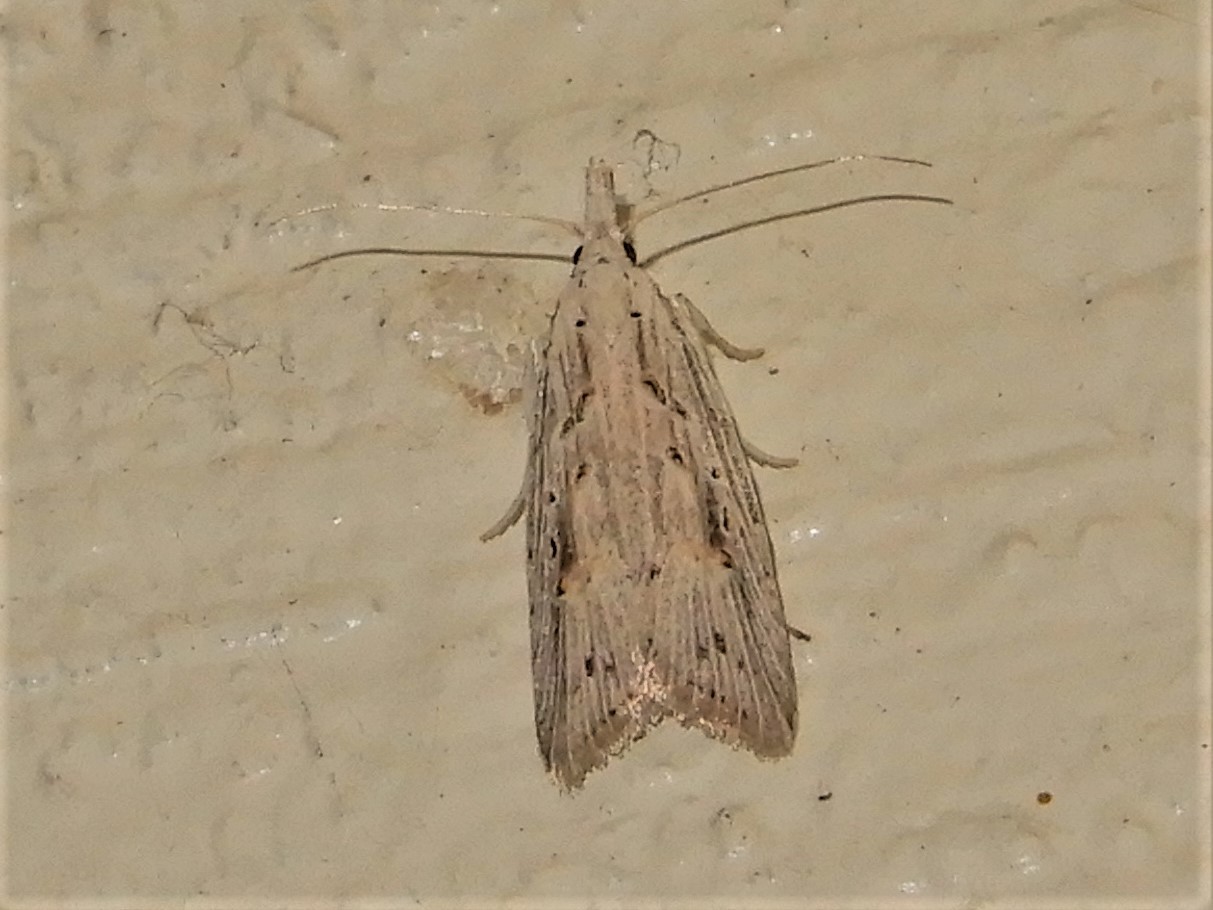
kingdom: Animalia
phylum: Arthropoda
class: Insecta
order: Lepidoptera
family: Carposinidae
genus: Carposina
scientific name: Carposina Heterocrossa exochana
